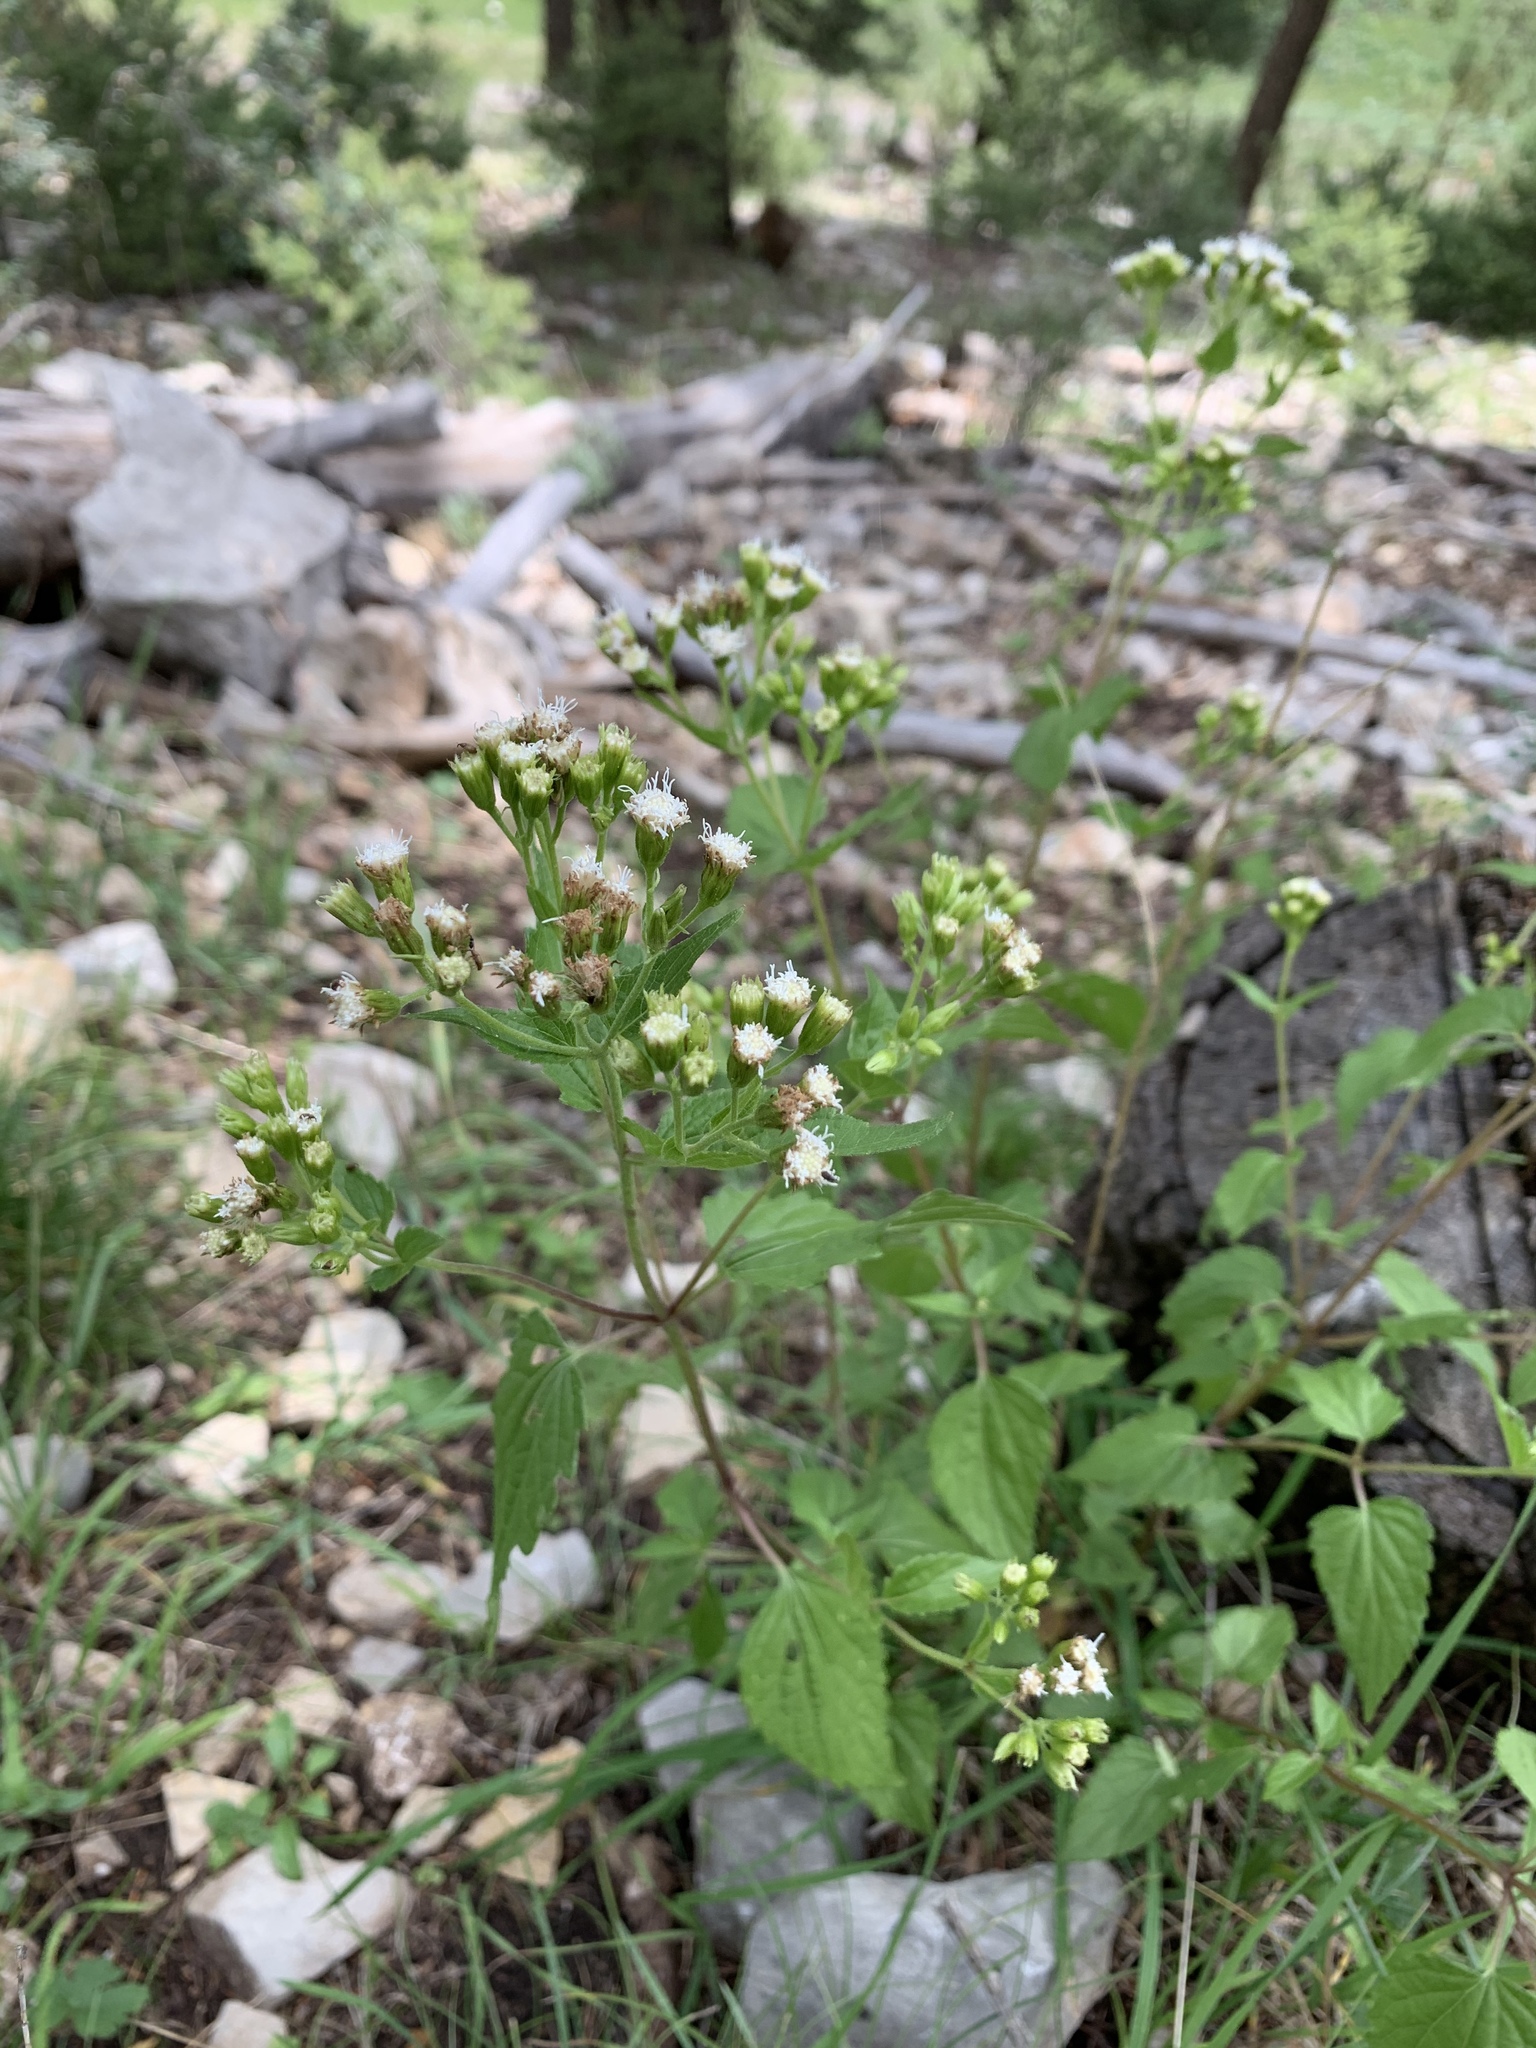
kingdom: Plantae
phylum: Tracheophyta
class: Magnoliopsida
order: Asterales
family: Asteraceae
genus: Ageratina
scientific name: Ageratina rothrockii
